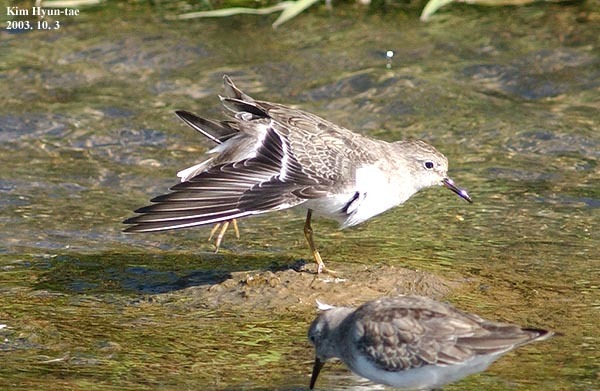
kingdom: Animalia
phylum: Chordata
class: Aves
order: Charadriiformes
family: Scolopacidae
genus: Calidris
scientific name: Calidris temminckii
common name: Temminck's stint
